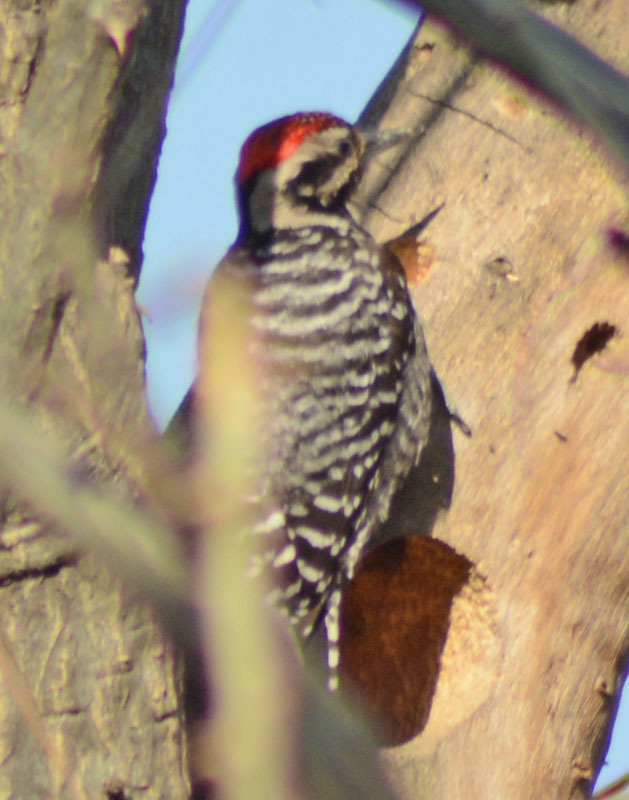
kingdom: Animalia
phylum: Chordata
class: Aves
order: Piciformes
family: Picidae
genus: Dryobates
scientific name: Dryobates scalaris
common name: Ladder-backed woodpecker
